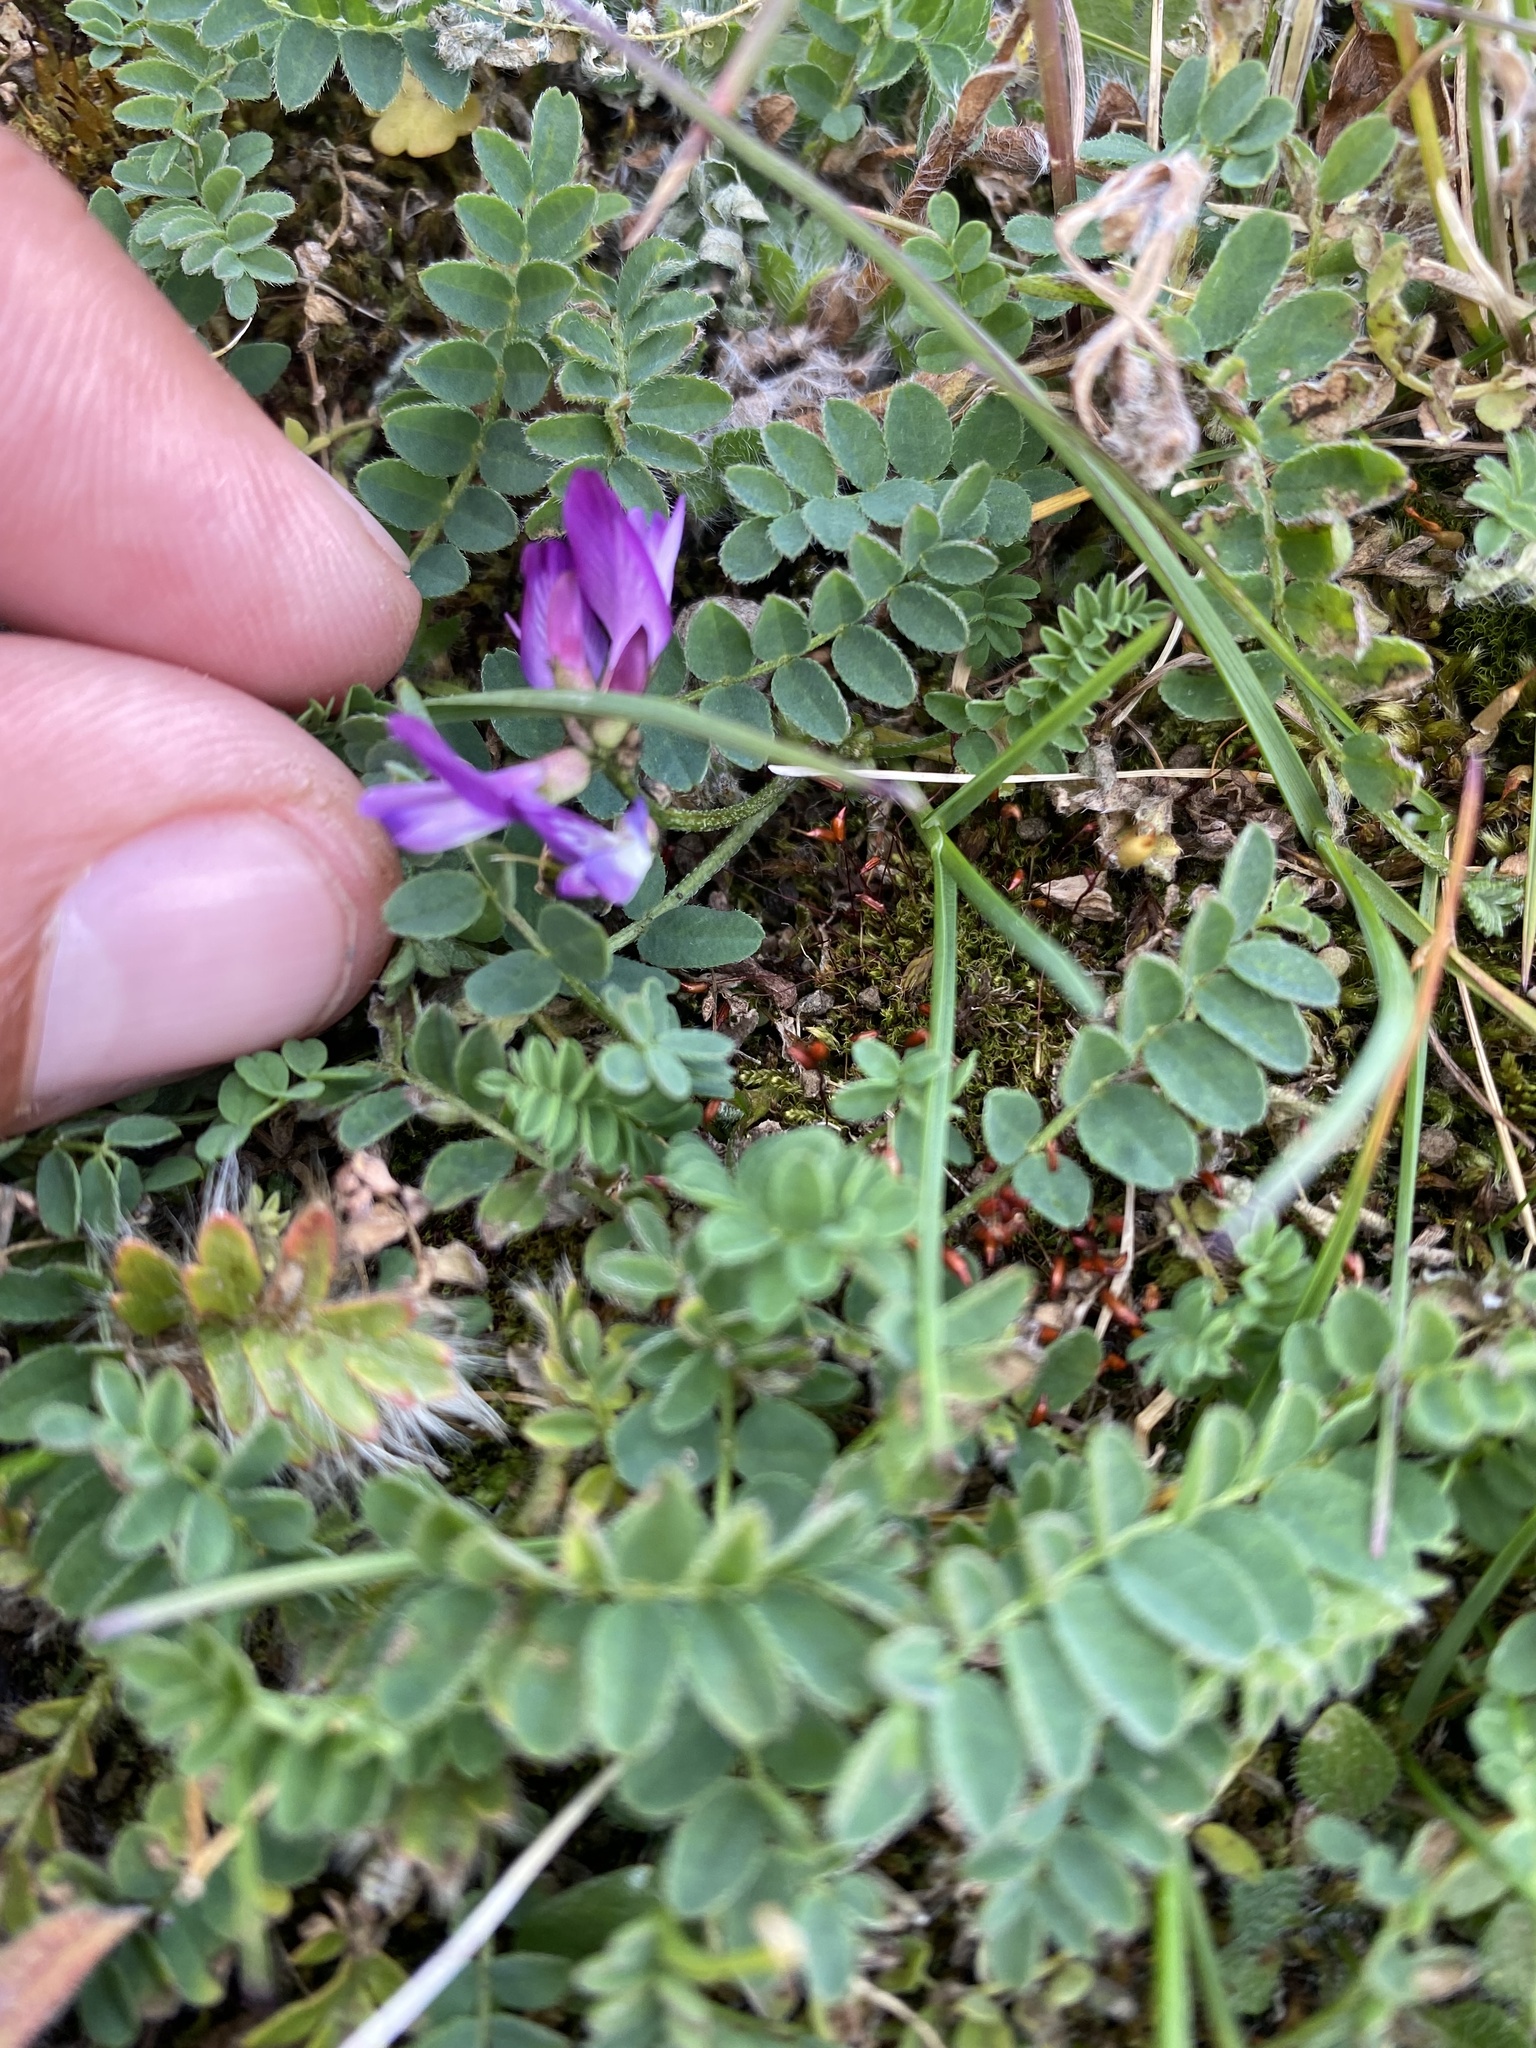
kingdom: Plantae
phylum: Tracheophyta
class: Magnoliopsida
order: Fabales
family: Fabaceae
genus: Astragalus
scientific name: Astragalus alpinus
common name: Alpine milk-vetch
